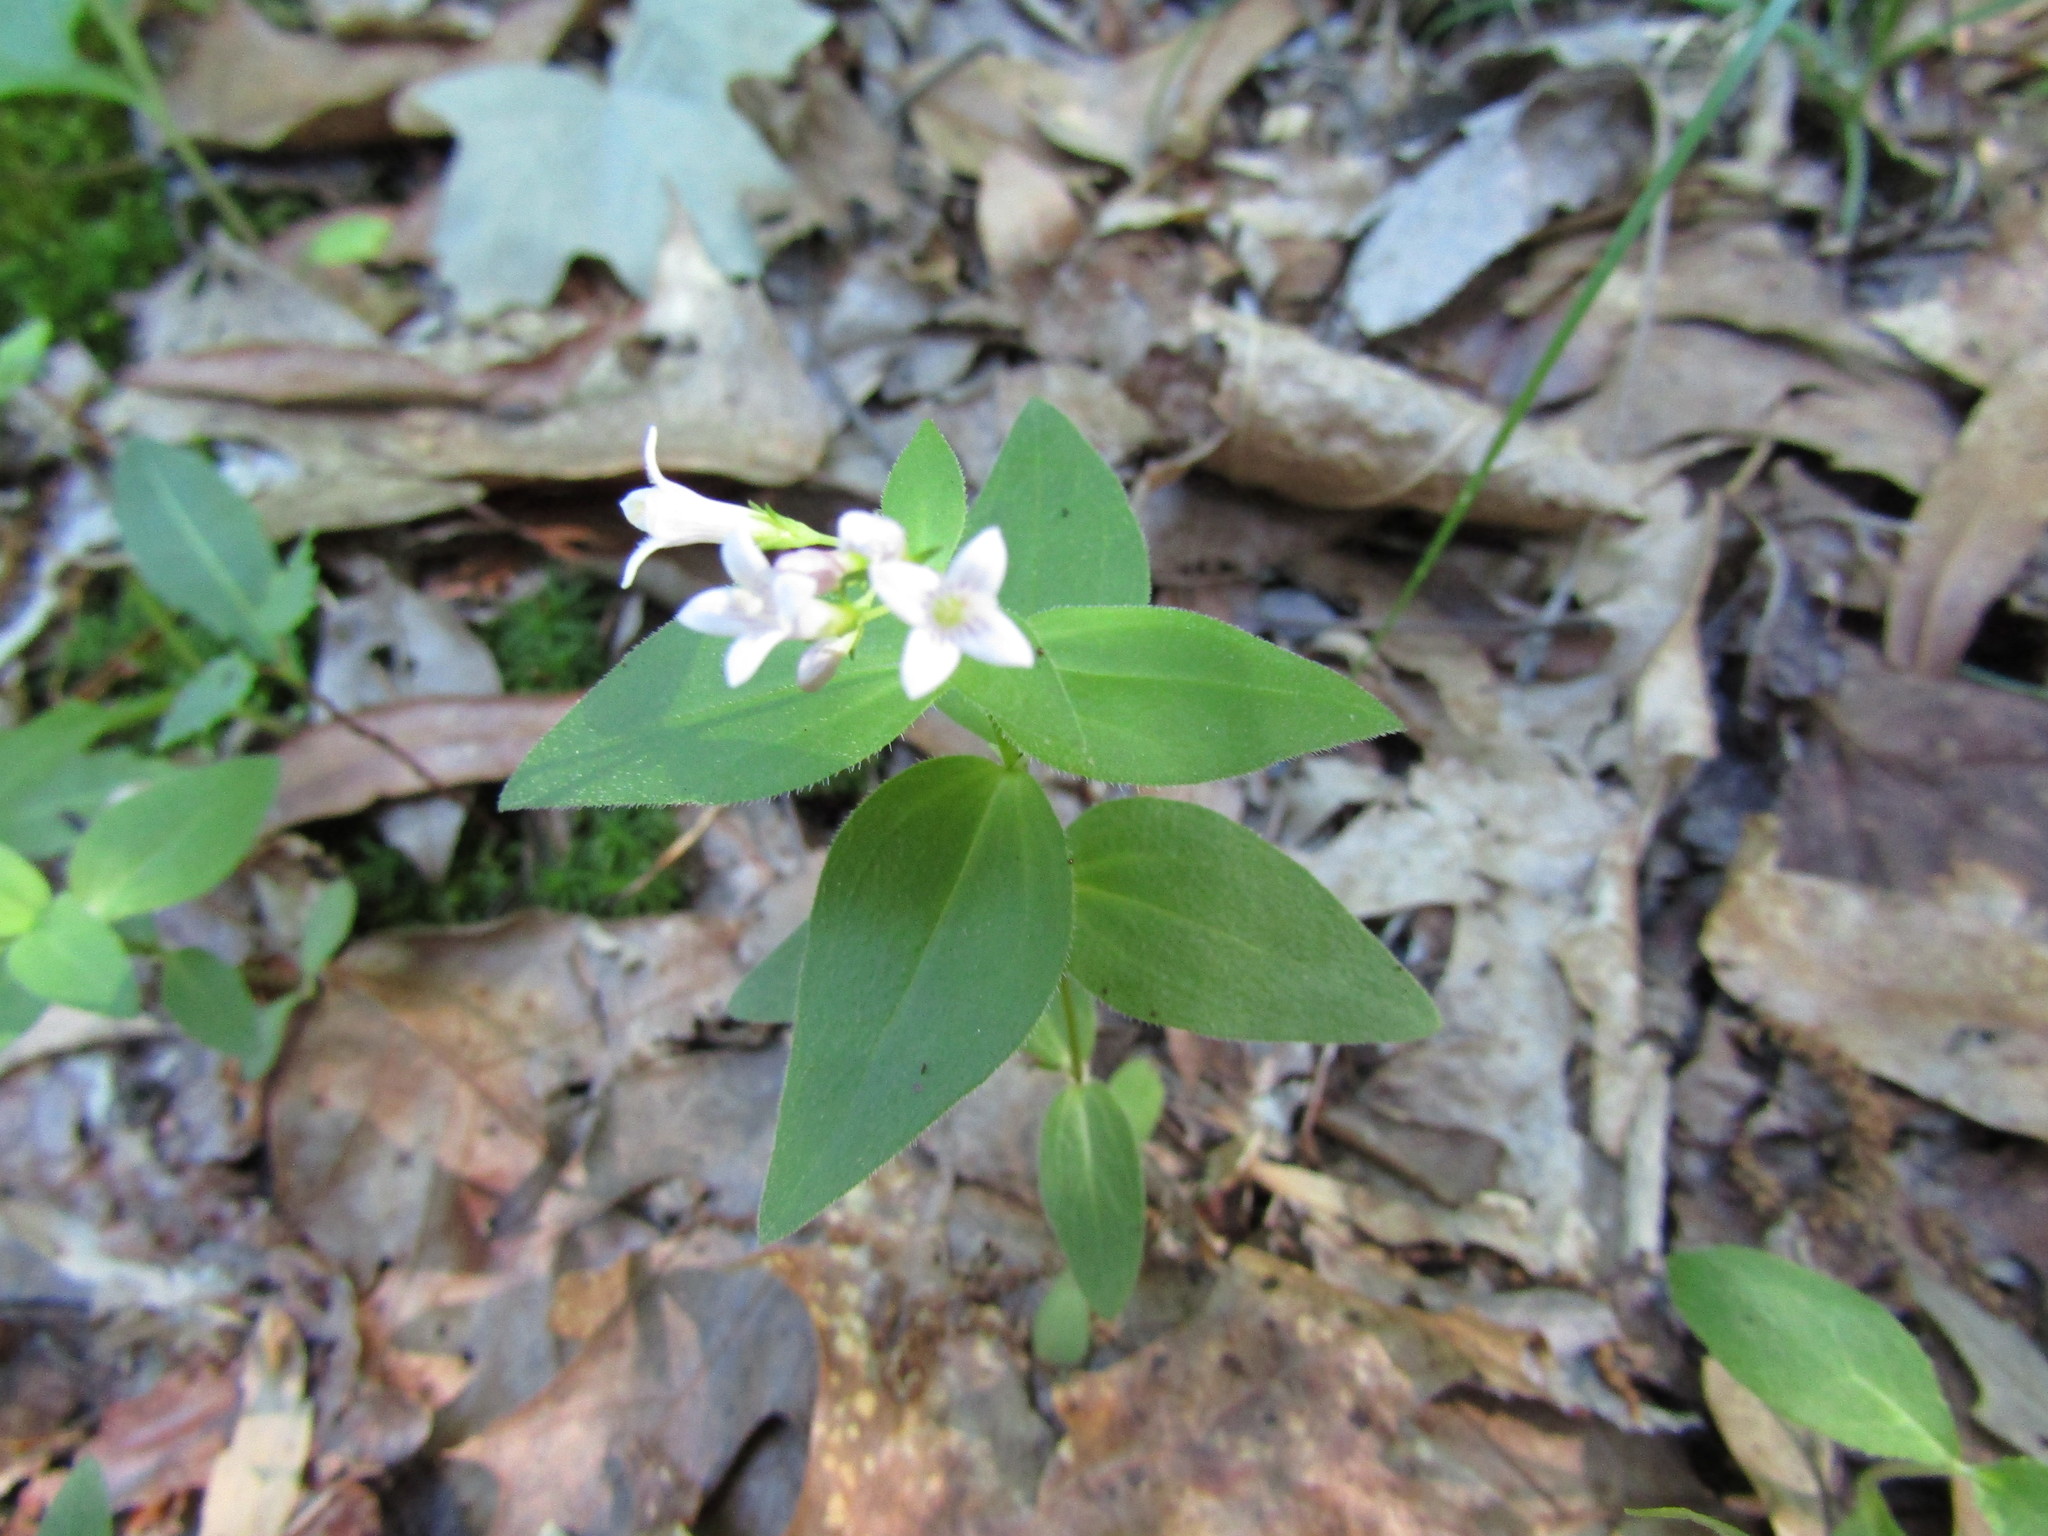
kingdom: Plantae
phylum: Tracheophyta
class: Magnoliopsida
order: Gentianales
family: Rubiaceae
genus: Houstonia
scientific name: Houstonia purpurea
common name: Summer bluet
